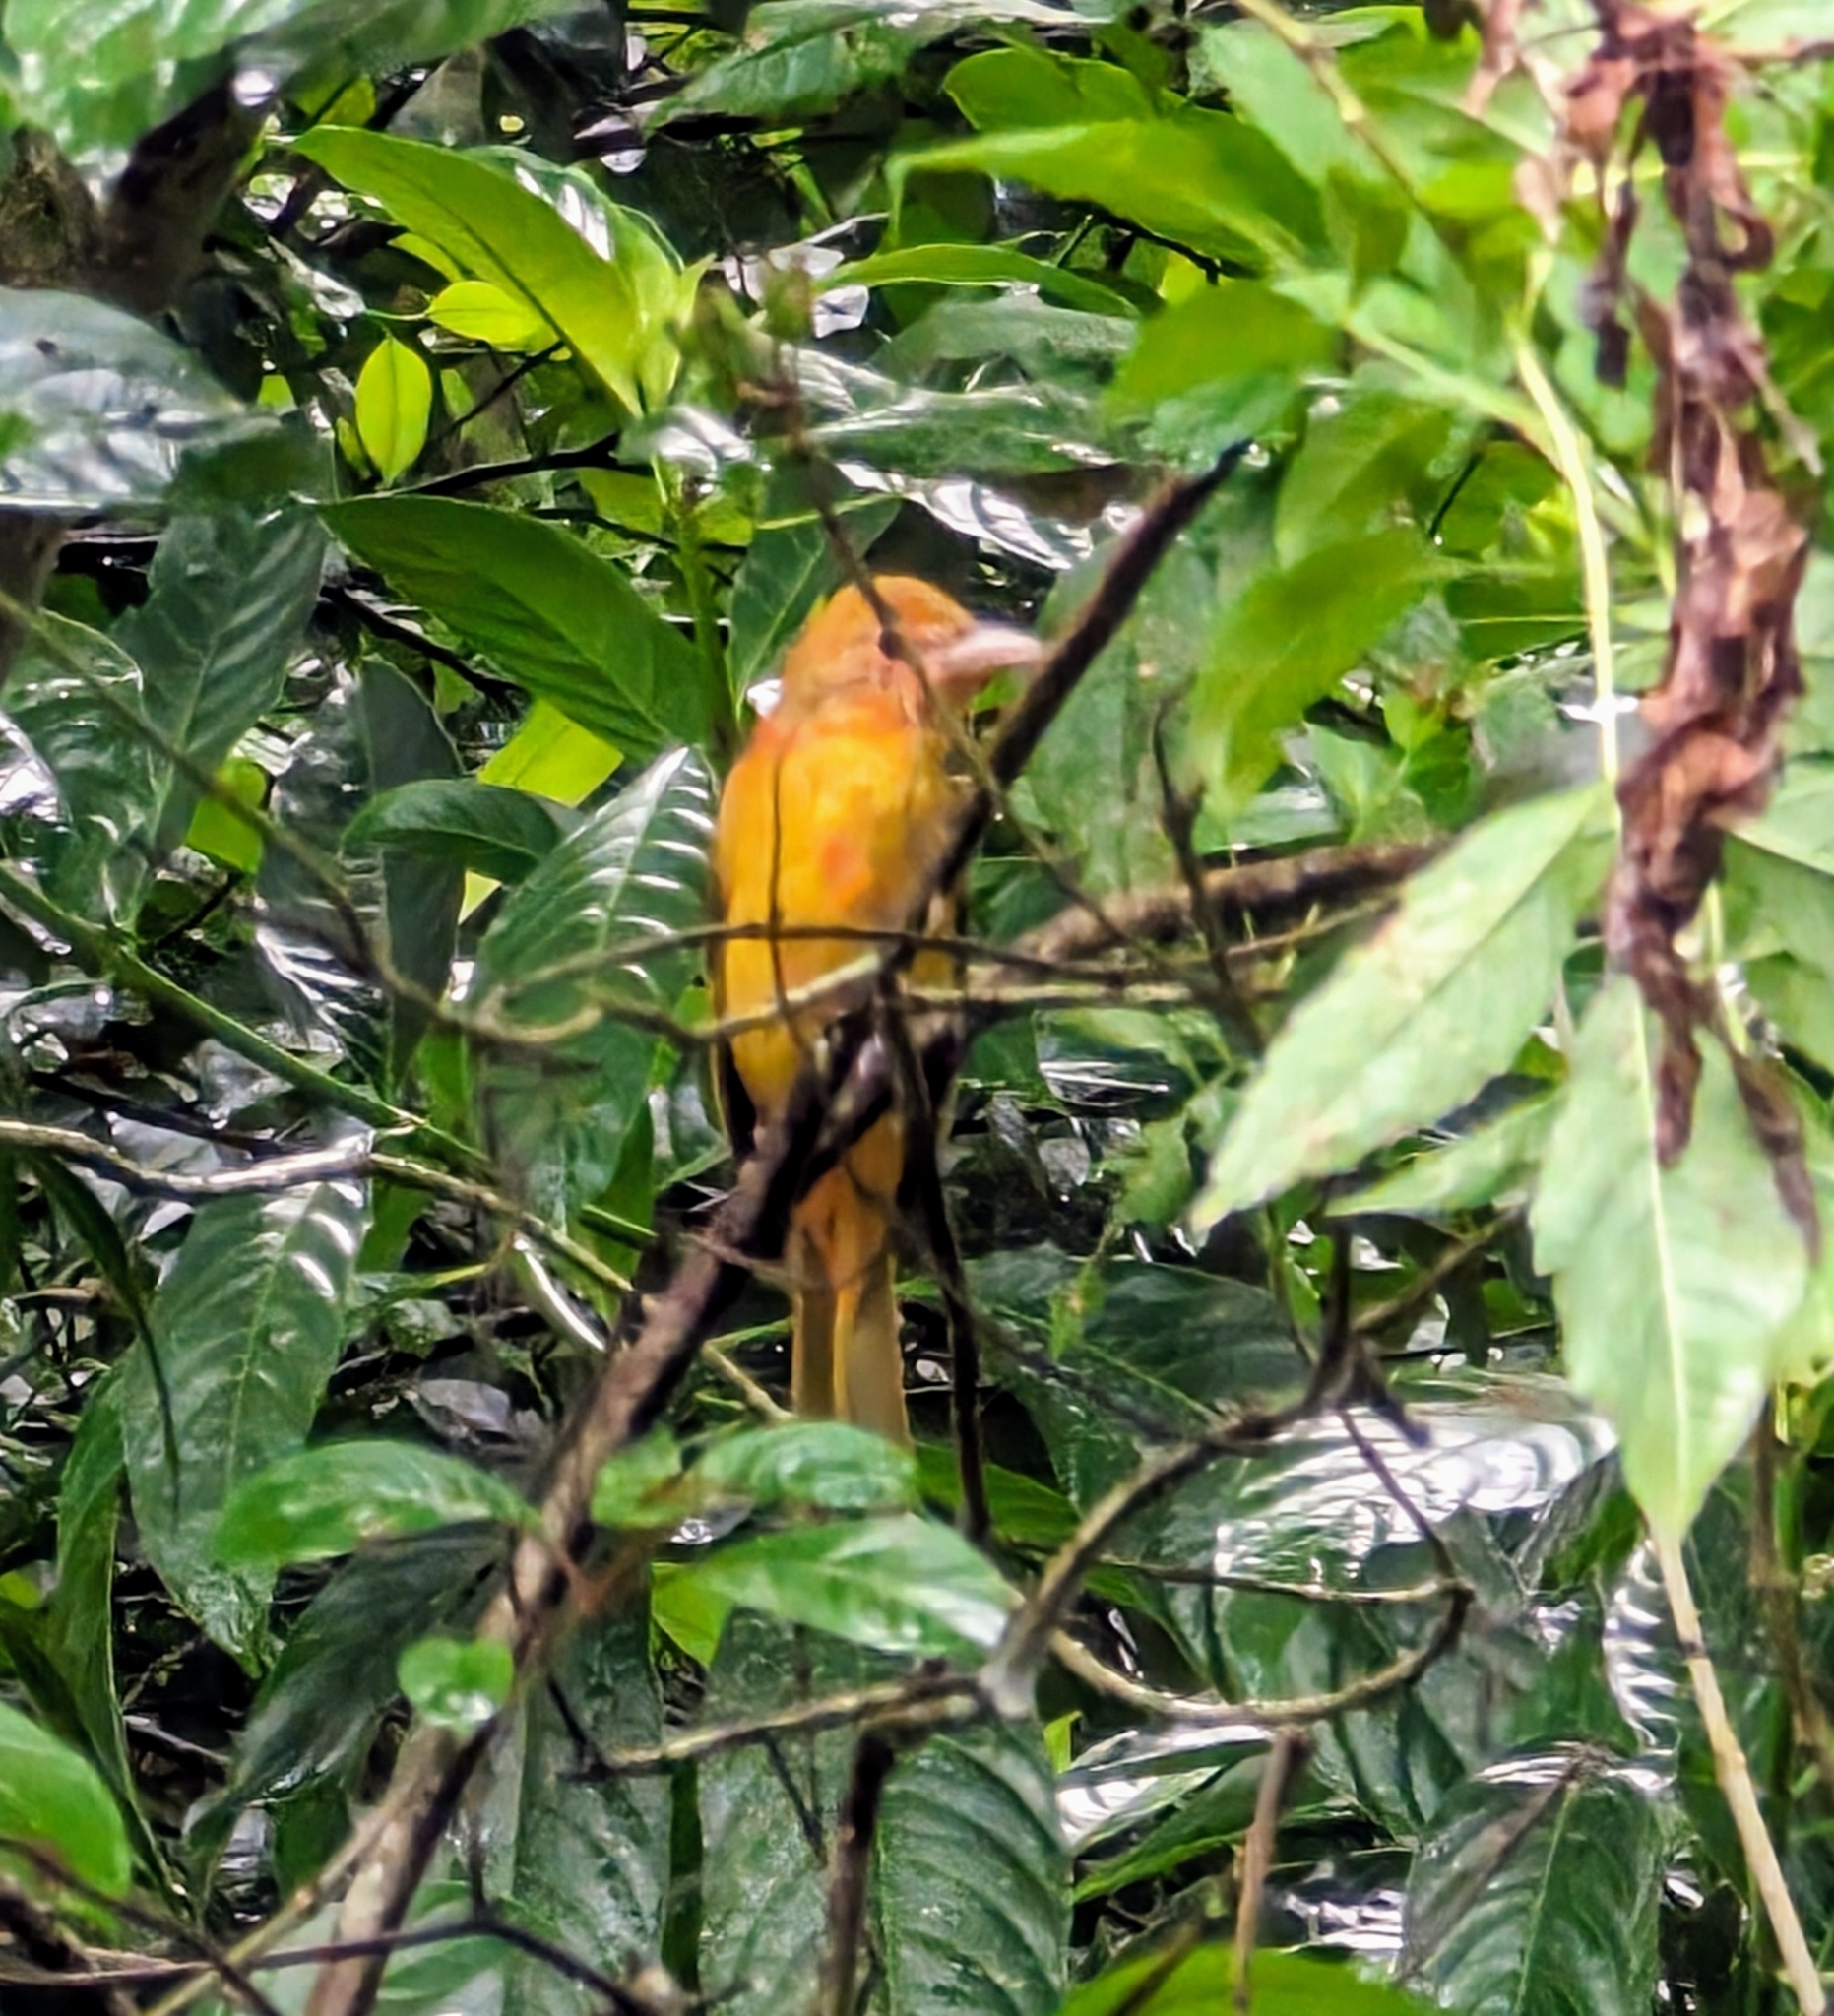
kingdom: Animalia
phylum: Chordata
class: Aves
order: Passeriformes
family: Cardinalidae
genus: Piranga
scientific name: Piranga rubra
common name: Summer tanager
